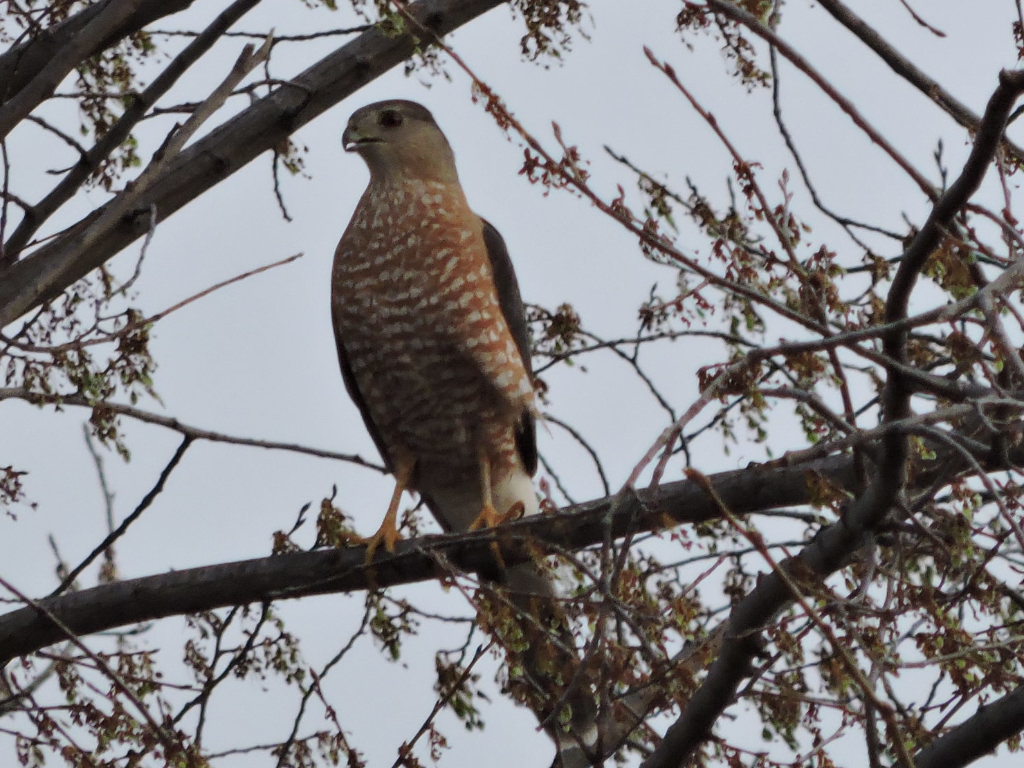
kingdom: Animalia
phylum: Chordata
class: Aves
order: Accipitriformes
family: Accipitridae
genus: Accipiter
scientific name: Accipiter cooperii
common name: Cooper's hawk
